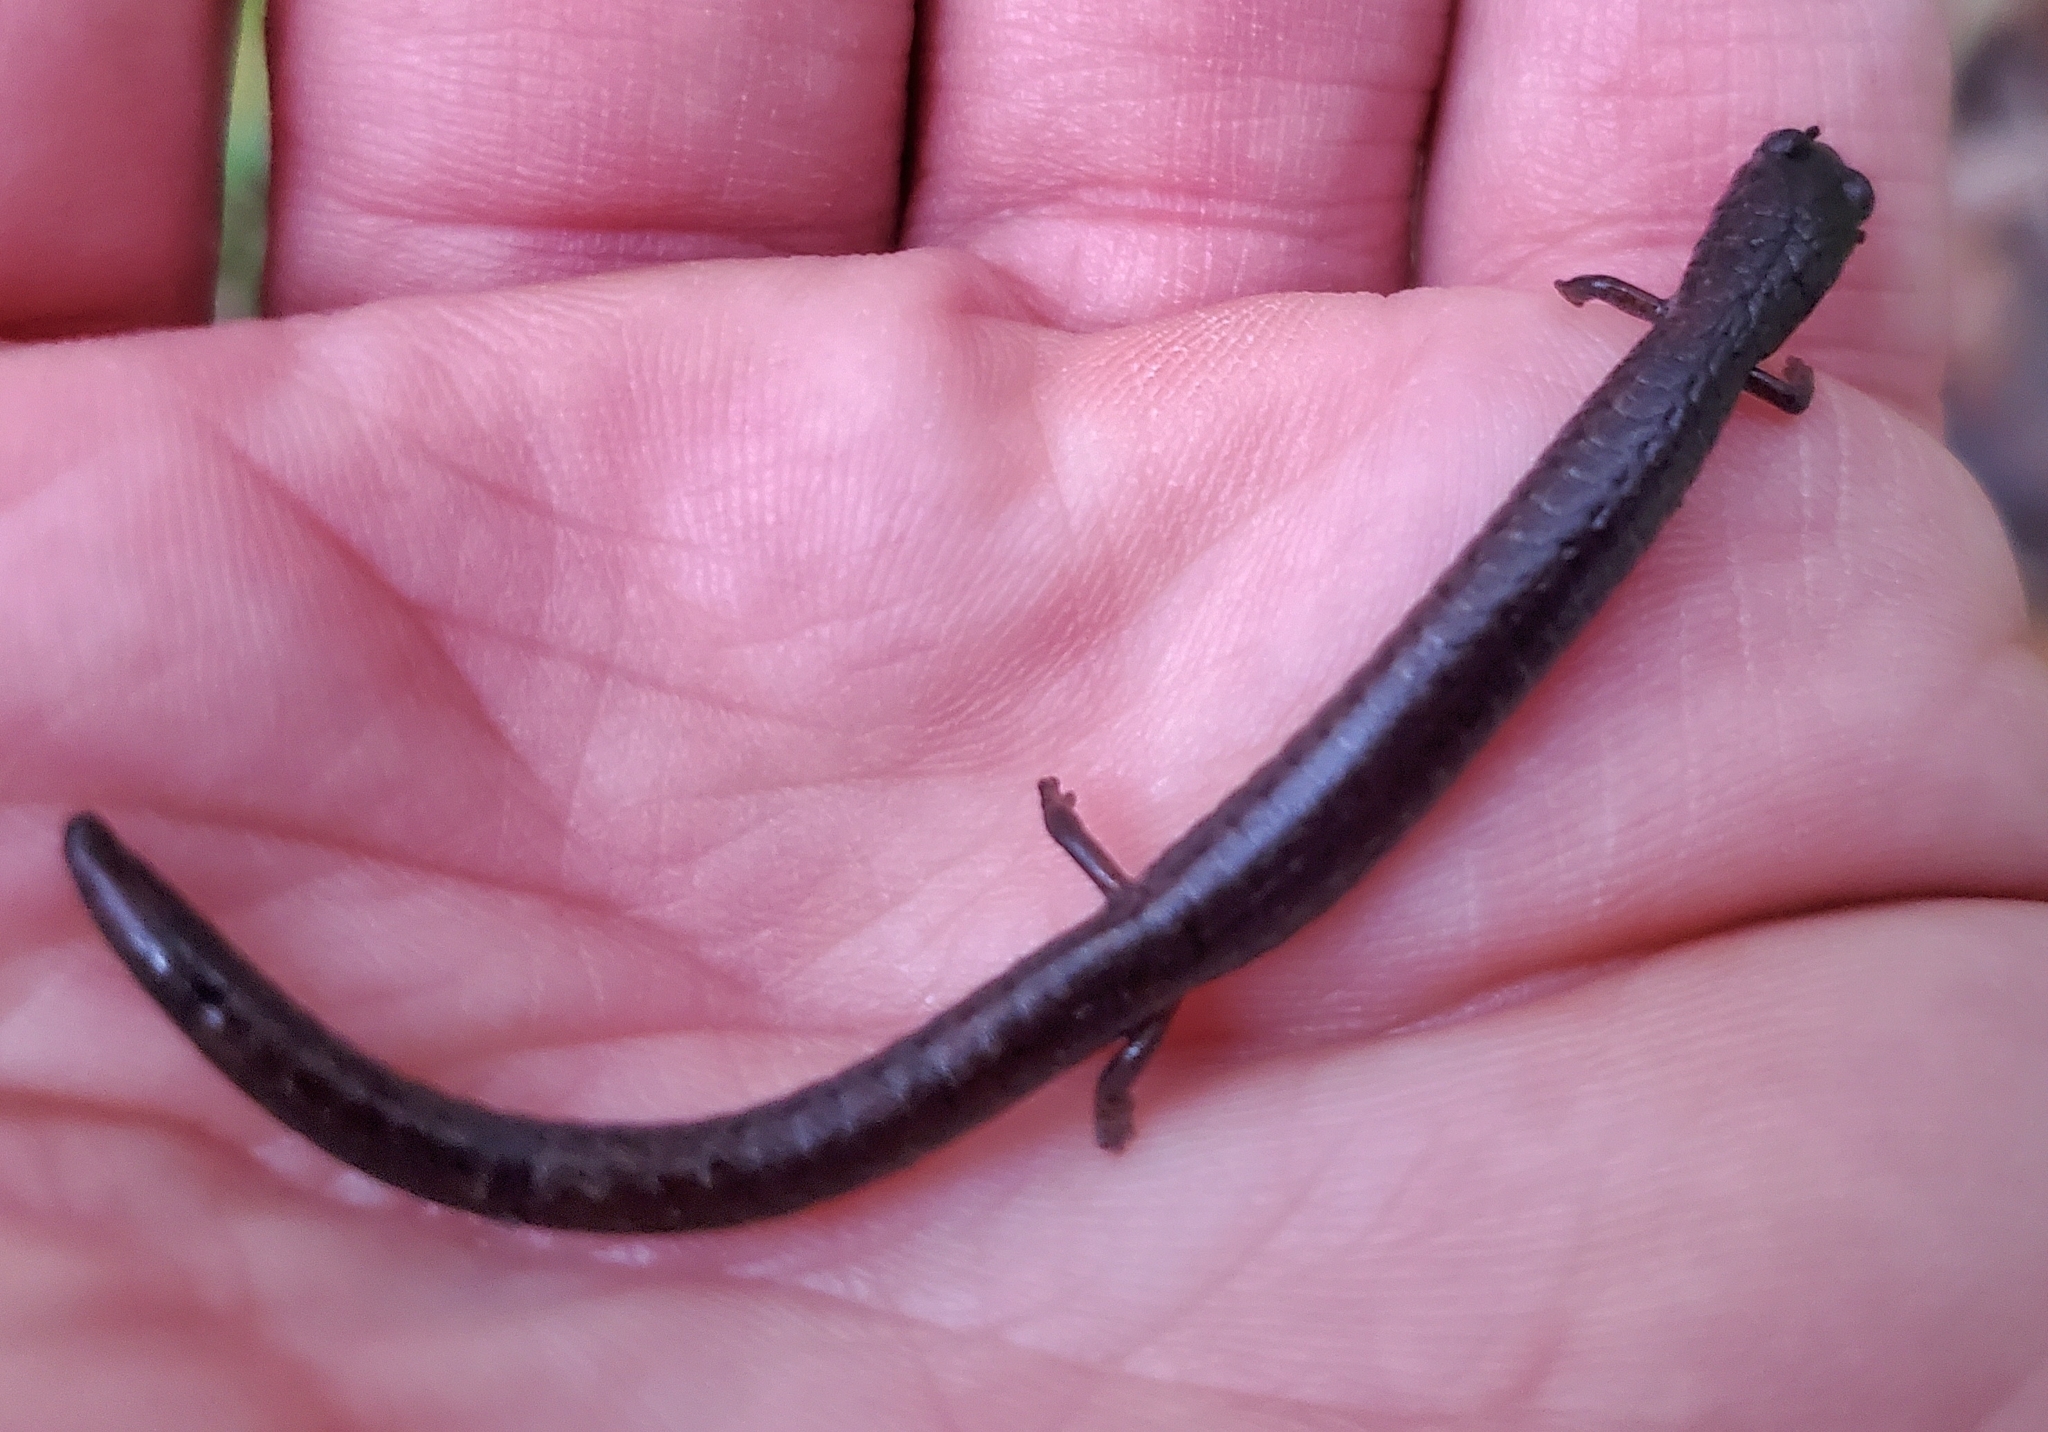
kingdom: Animalia
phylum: Chordata
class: Amphibia
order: Caudata
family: Plethodontidae
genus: Batrachoseps
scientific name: Batrachoseps attenuatus
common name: California slender salamander
